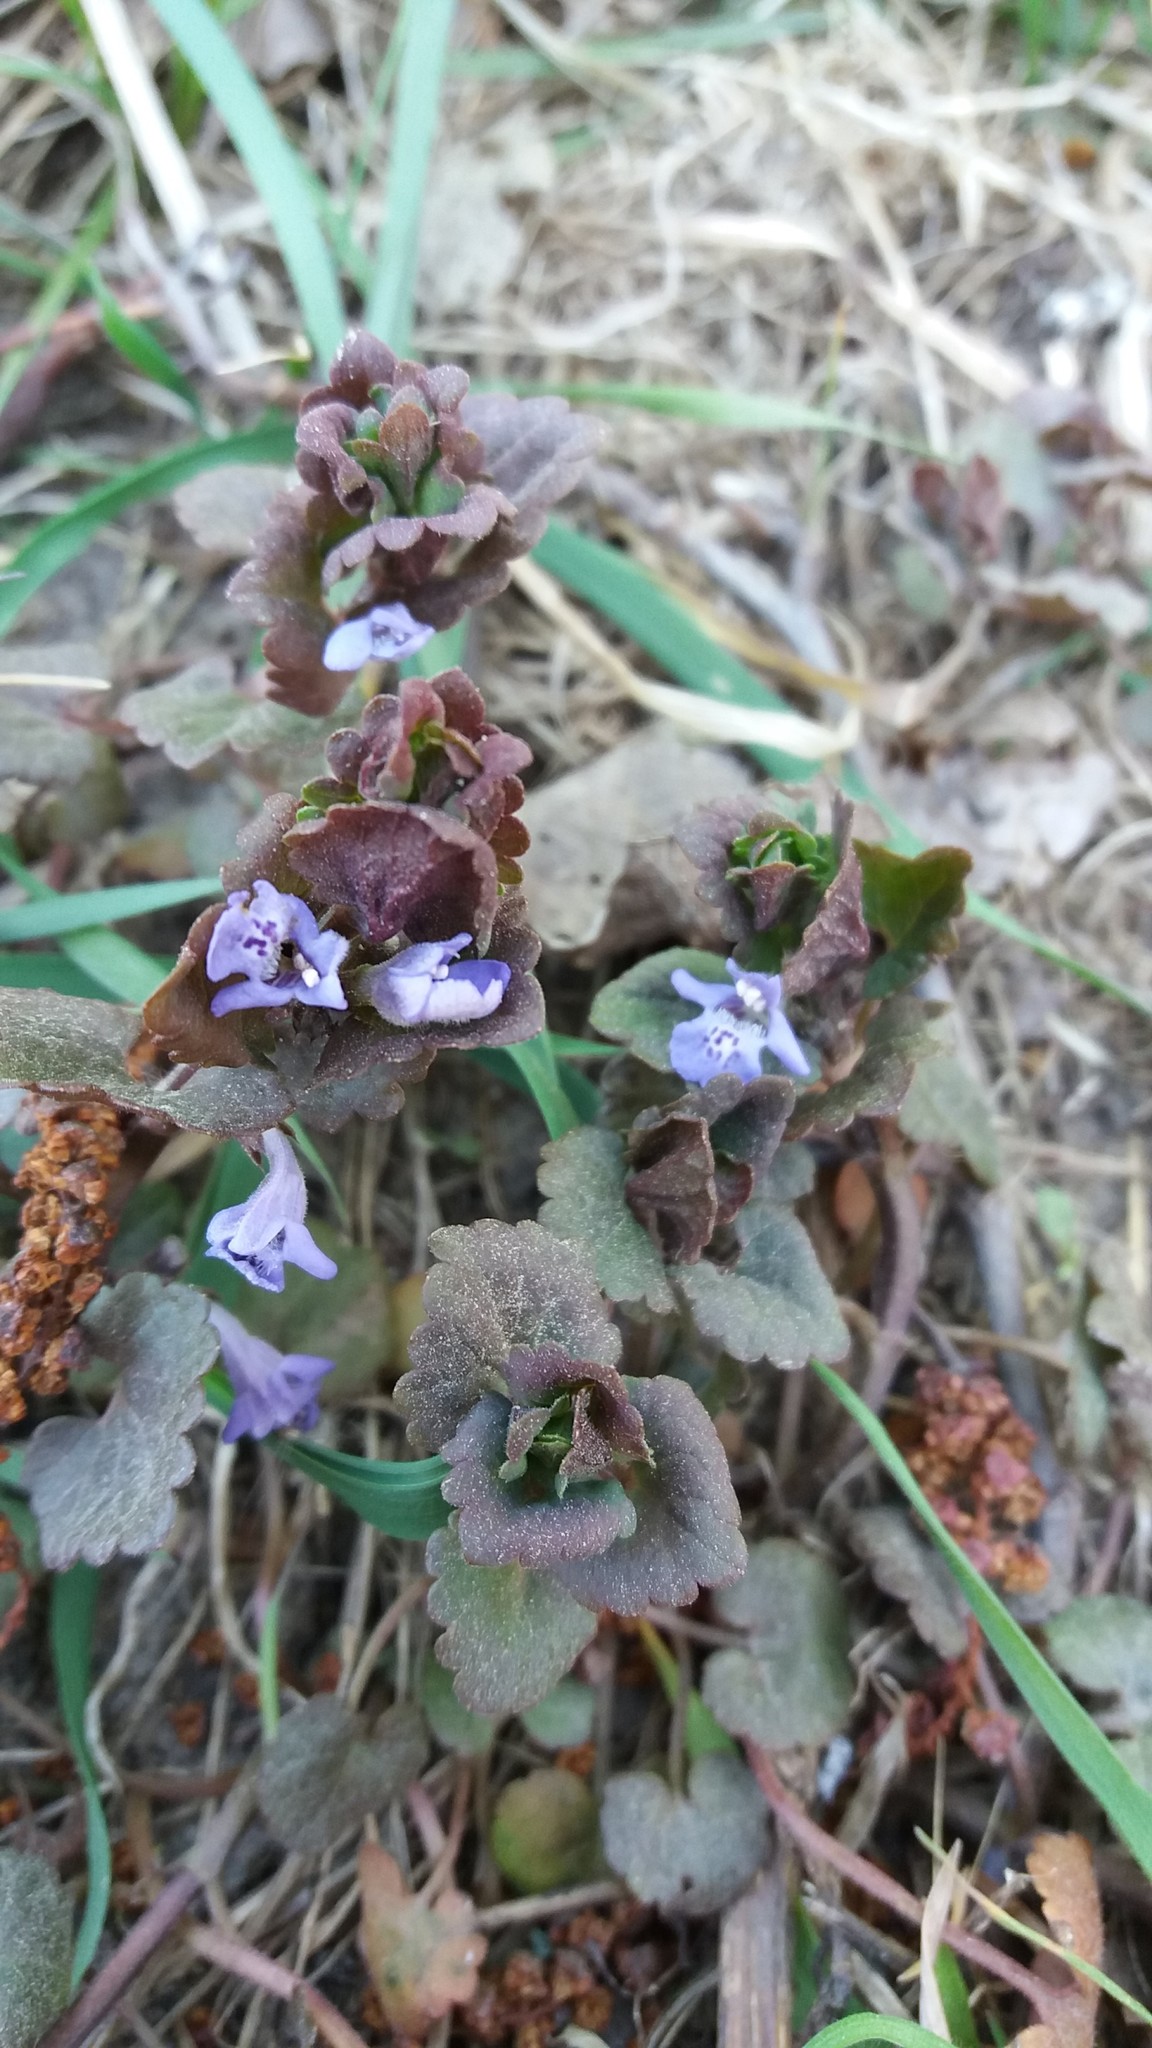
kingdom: Plantae
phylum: Tracheophyta
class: Magnoliopsida
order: Lamiales
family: Lamiaceae
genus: Glechoma
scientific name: Glechoma hederacea
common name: Ground ivy
